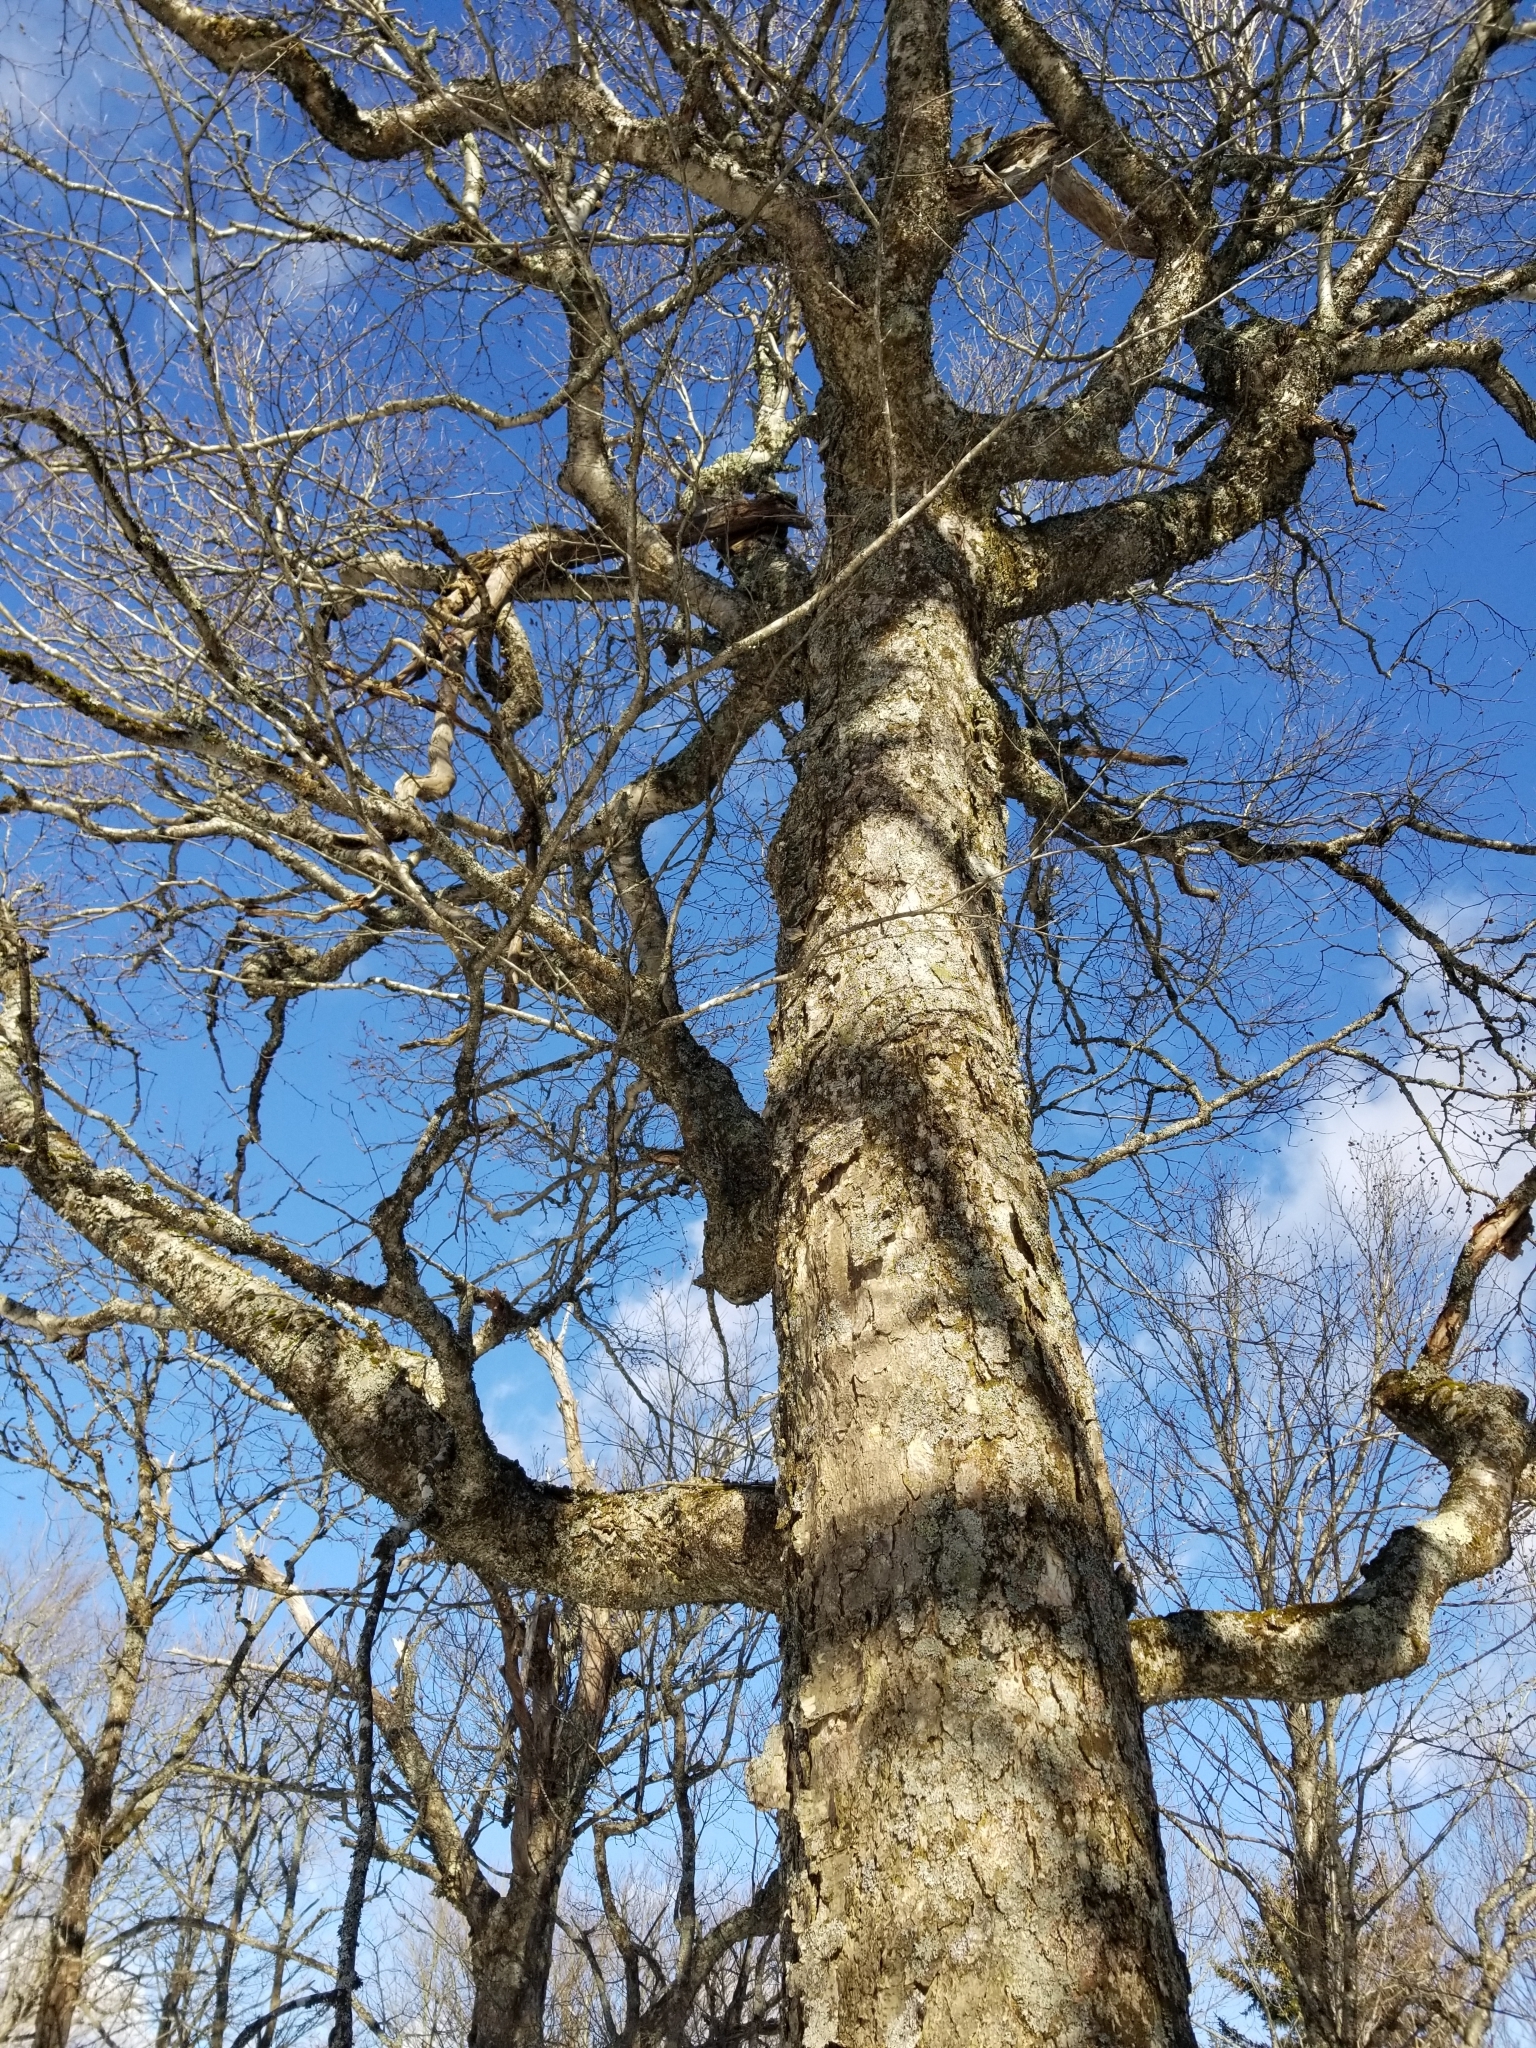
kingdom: Plantae
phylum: Tracheophyta
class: Magnoliopsida
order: Fagales
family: Betulaceae
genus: Betula
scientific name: Betula alleghaniensis
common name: Yellow birch
